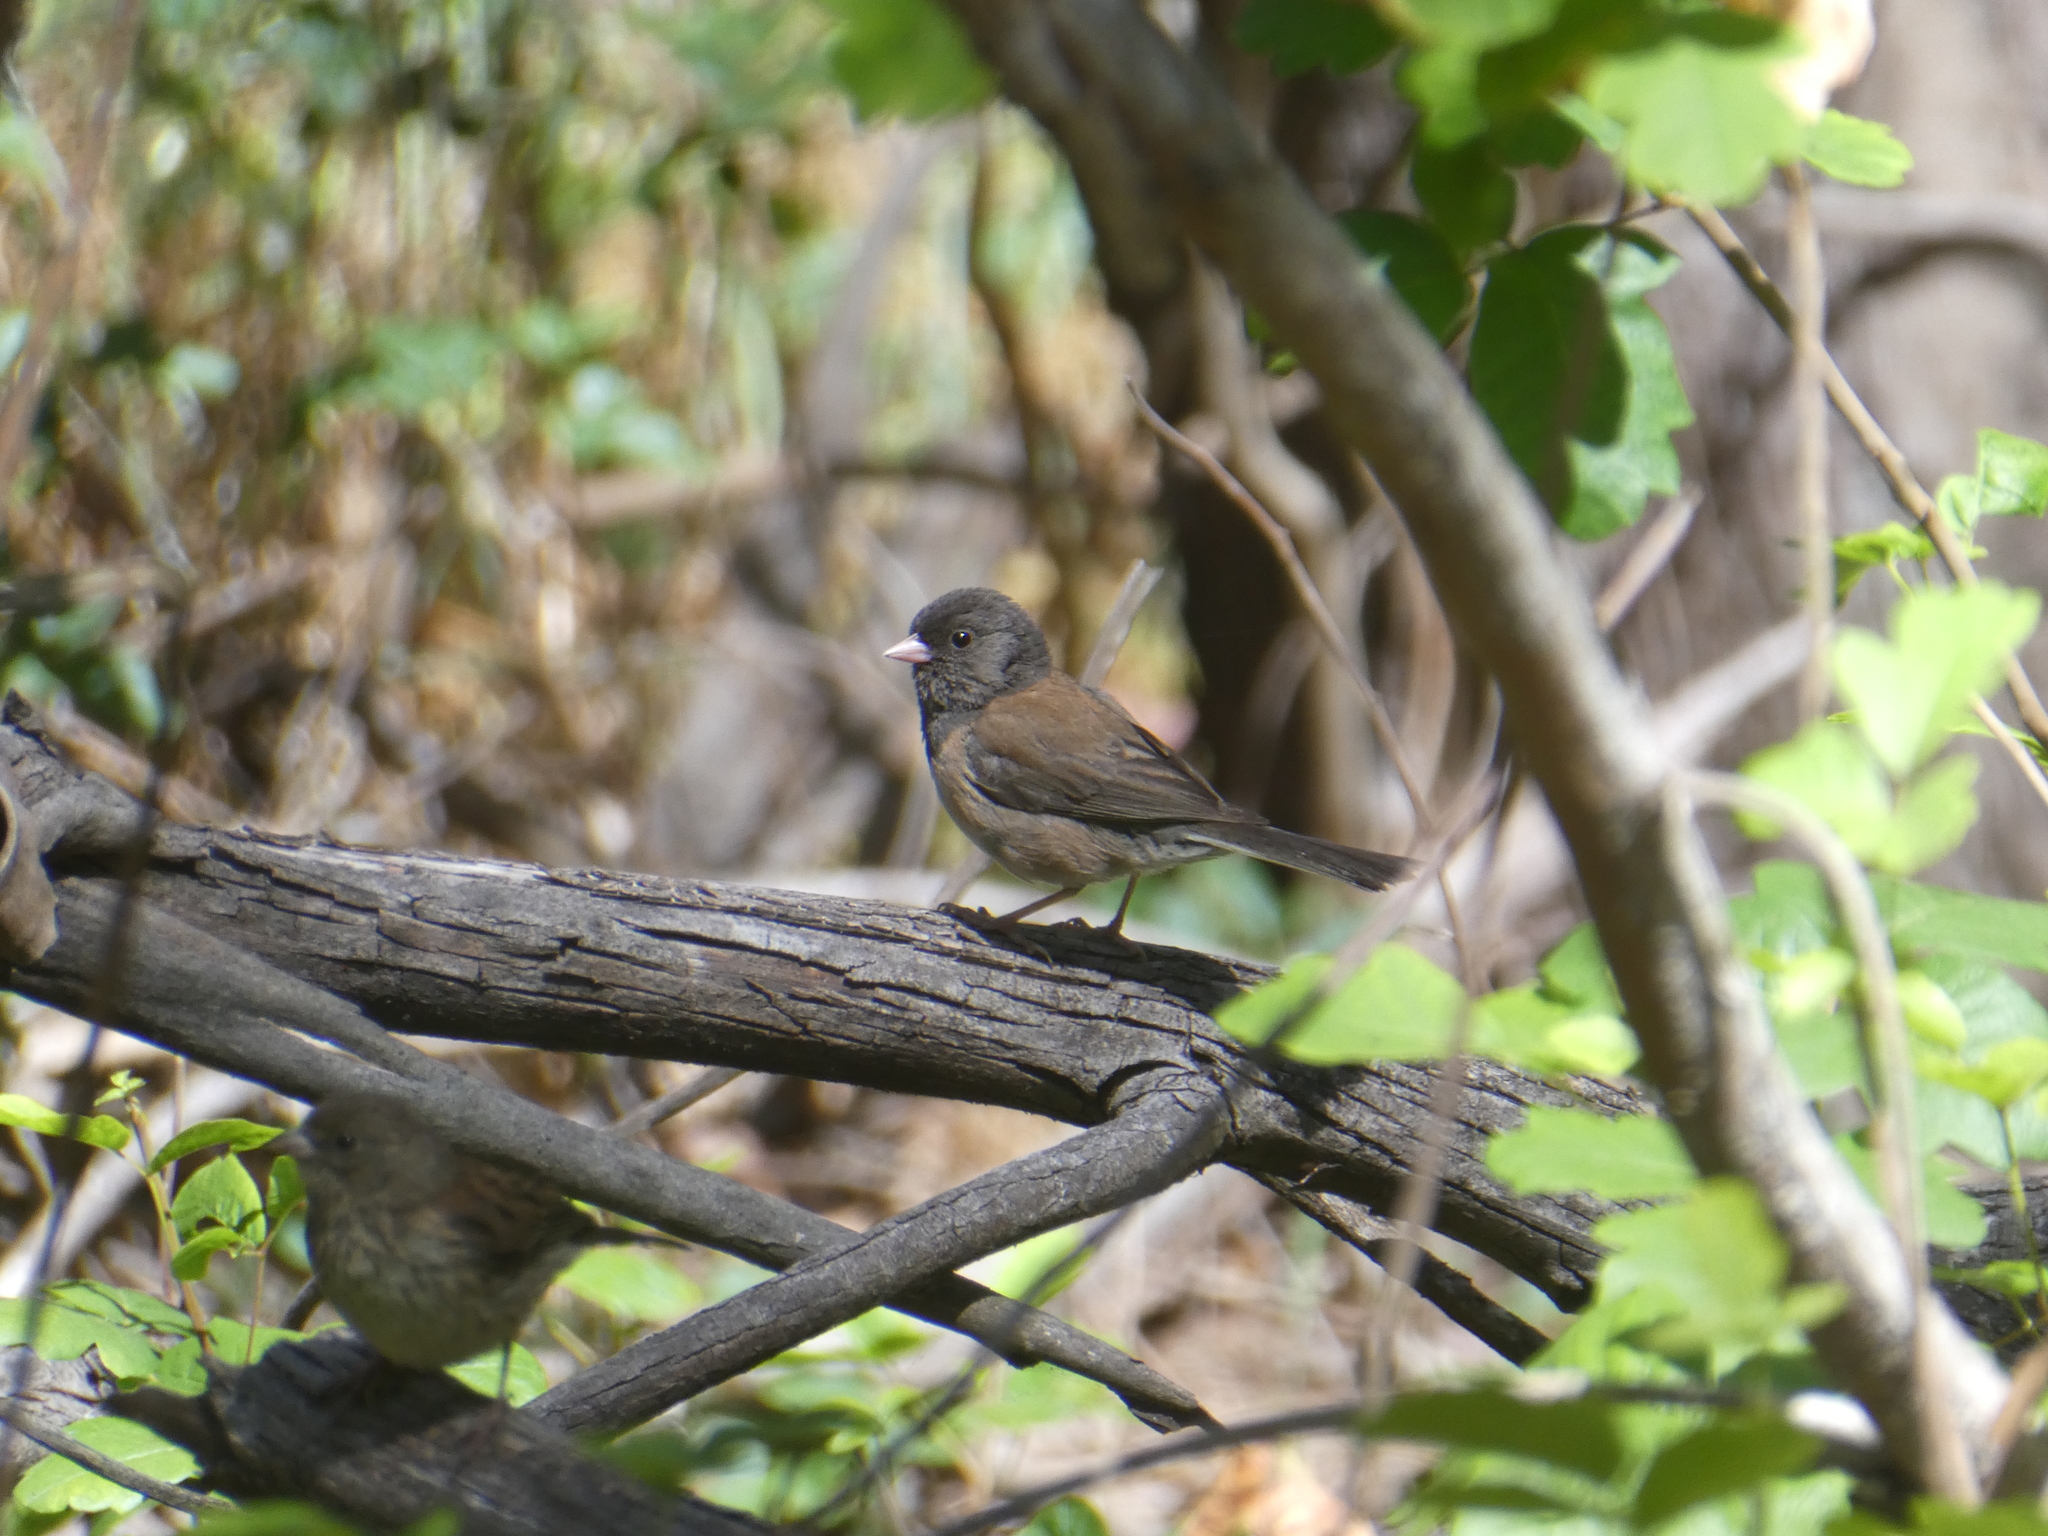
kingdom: Animalia
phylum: Chordata
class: Aves
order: Passeriformes
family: Passerellidae
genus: Junco
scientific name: Junco hyemalis
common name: Dark-eyed junco
